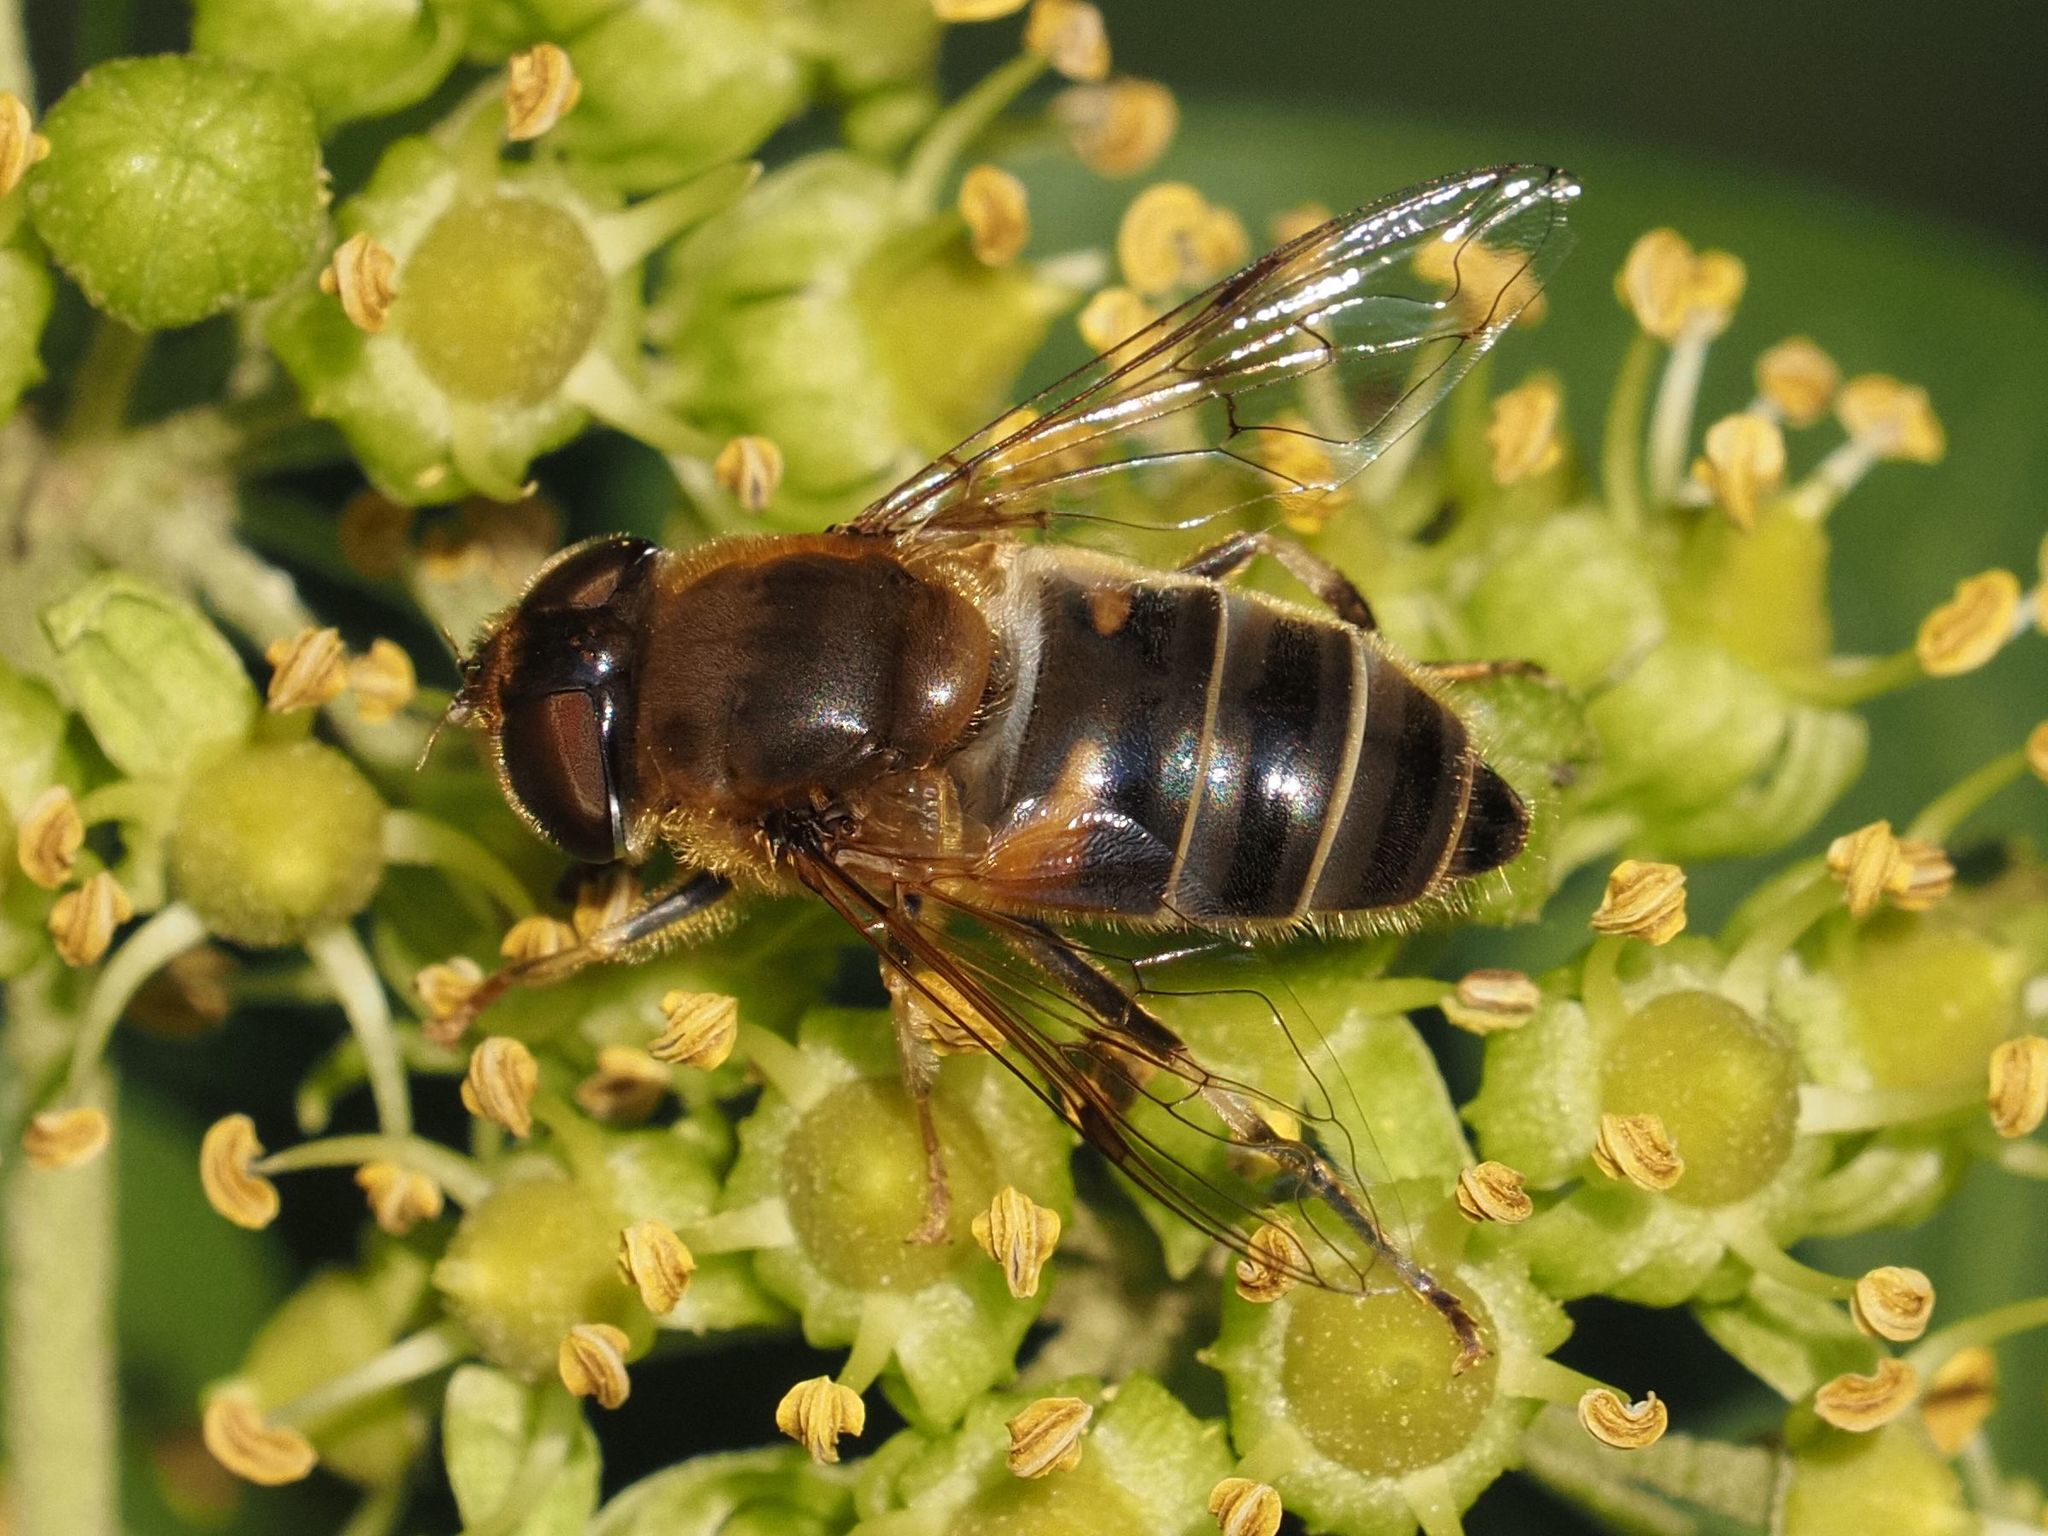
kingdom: Animalia
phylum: Arthropoda
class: Insecta
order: Diptera
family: Syrphidae
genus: Eristalis
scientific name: Eristalis pertinax
